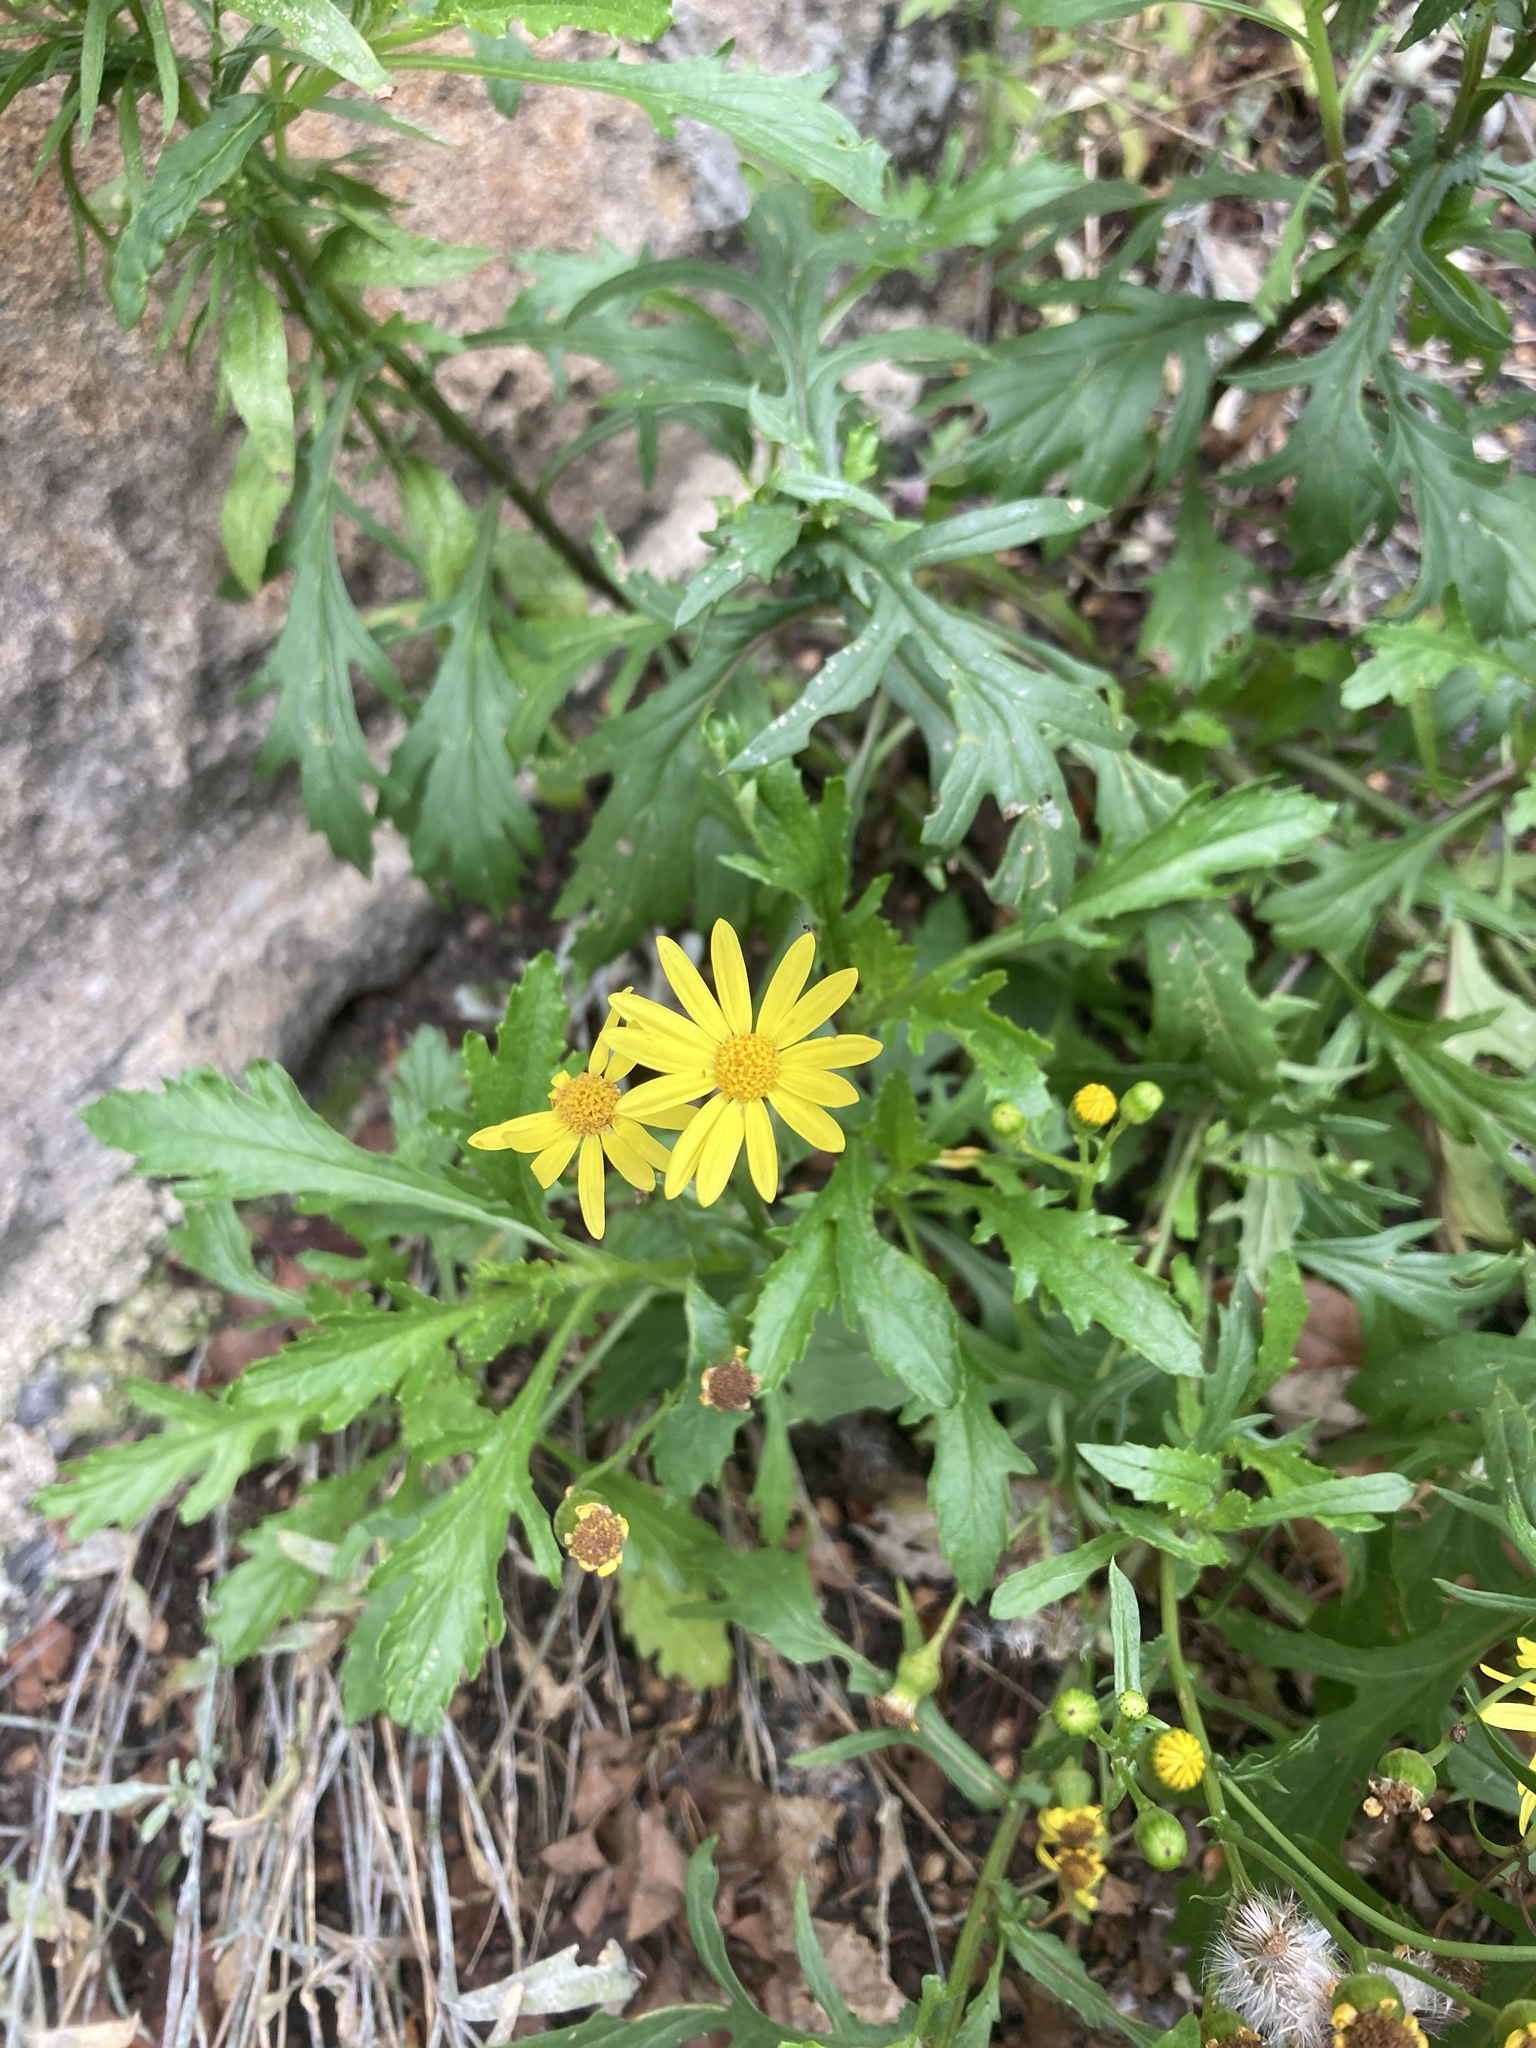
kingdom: Plantae
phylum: Tracheophyta
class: Magnoliopsida
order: Asterales
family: Asteraceae
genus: Senecio
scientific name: Senecio squalidus
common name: Oxford ragwort
